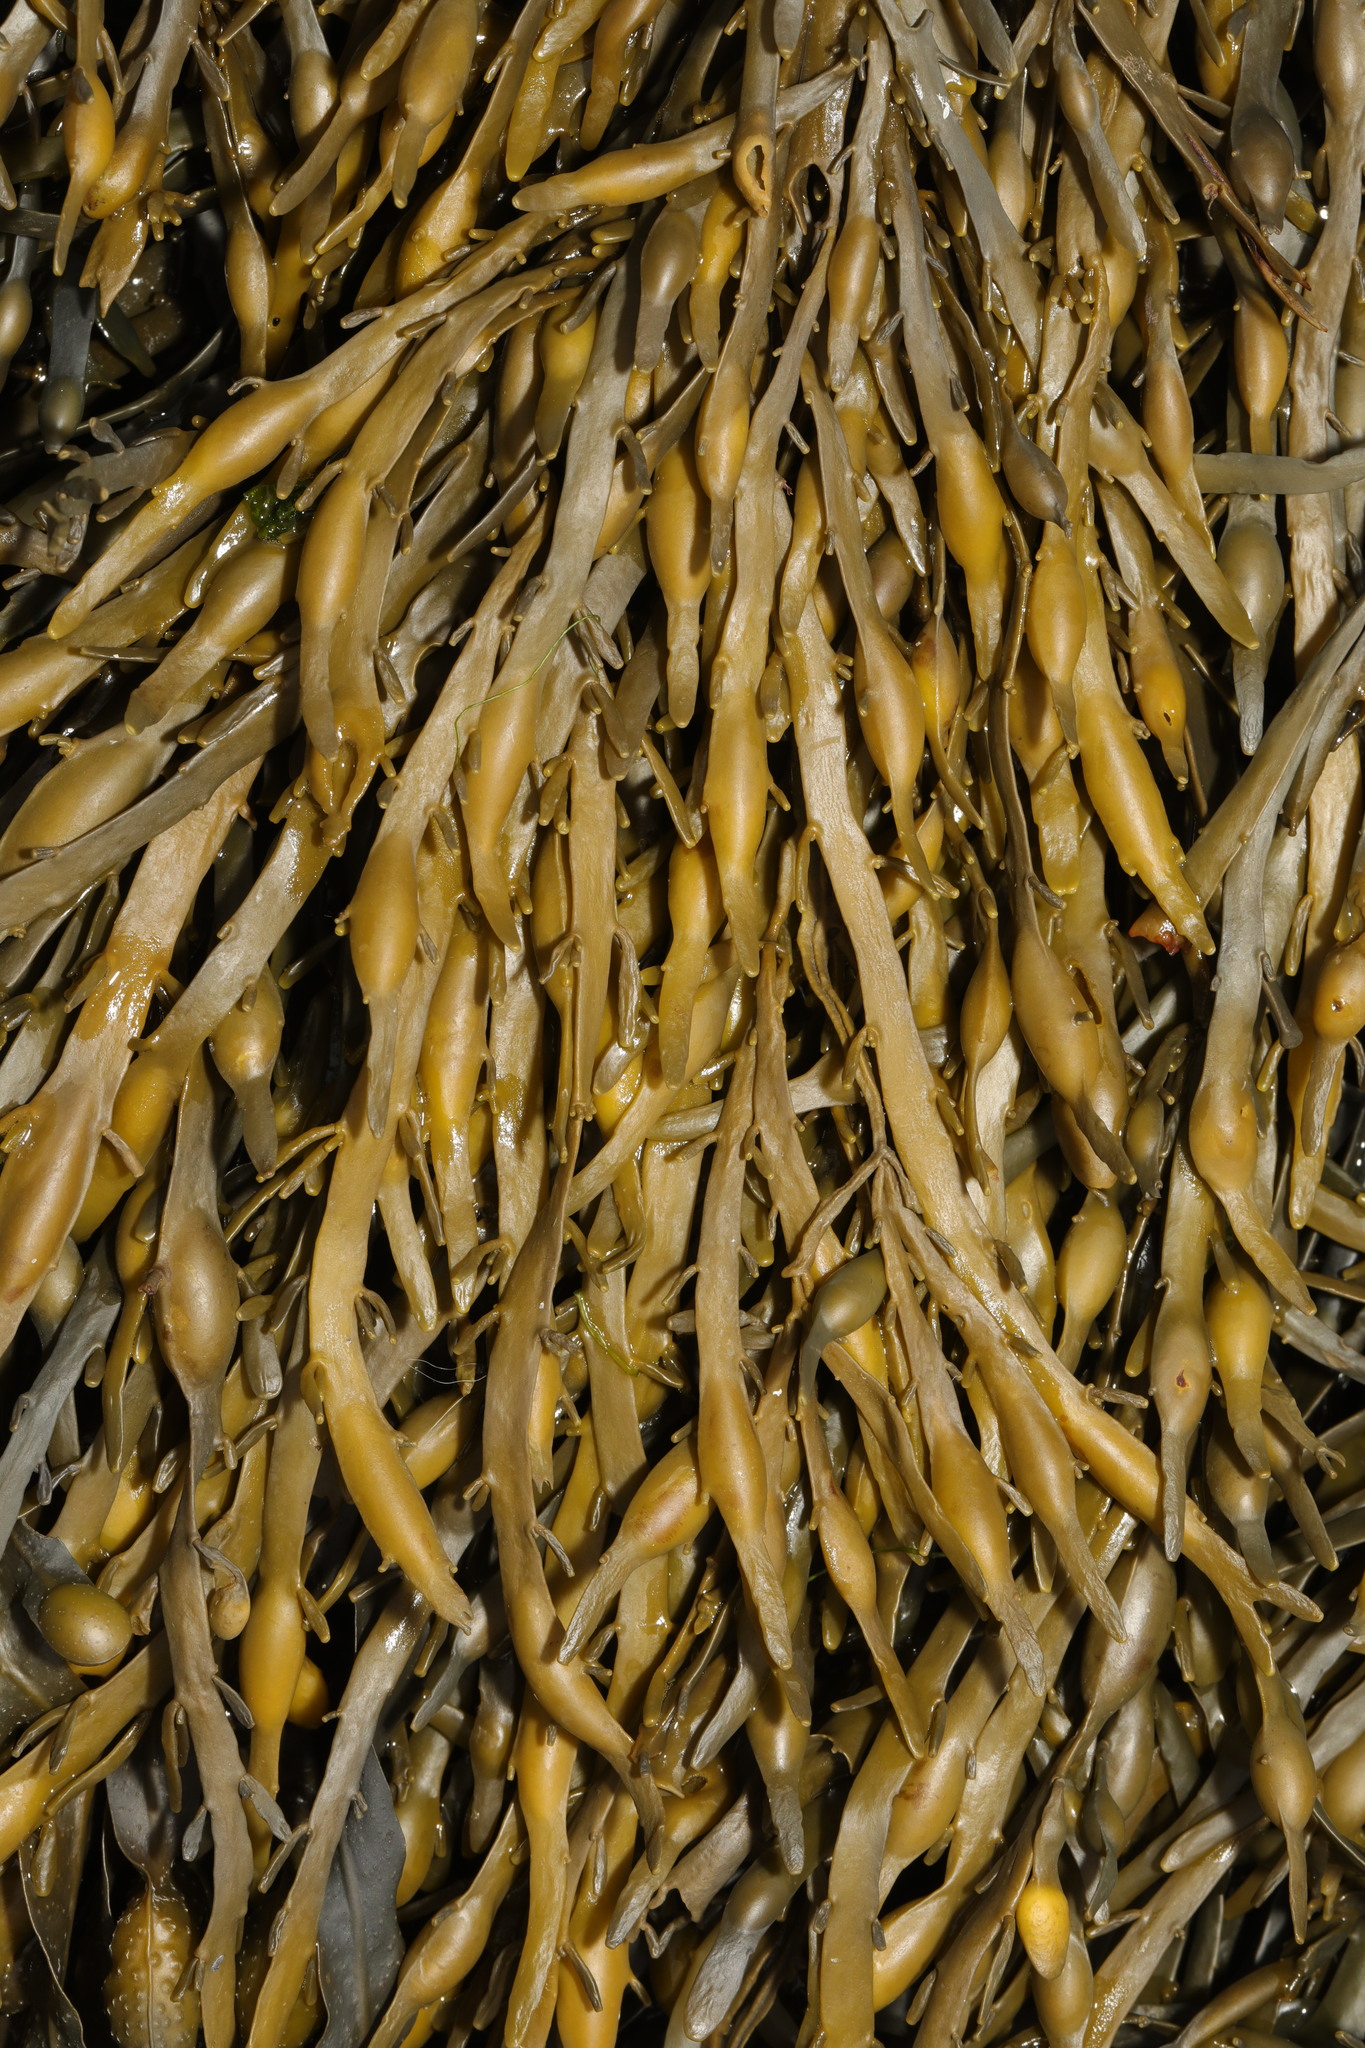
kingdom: Chromista
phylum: Ochrophyta
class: Phaeophyceae
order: Fucales
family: Fucaceae
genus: Ascophyllum
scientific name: Ascophyllum nodosum
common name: Knotted wrack
